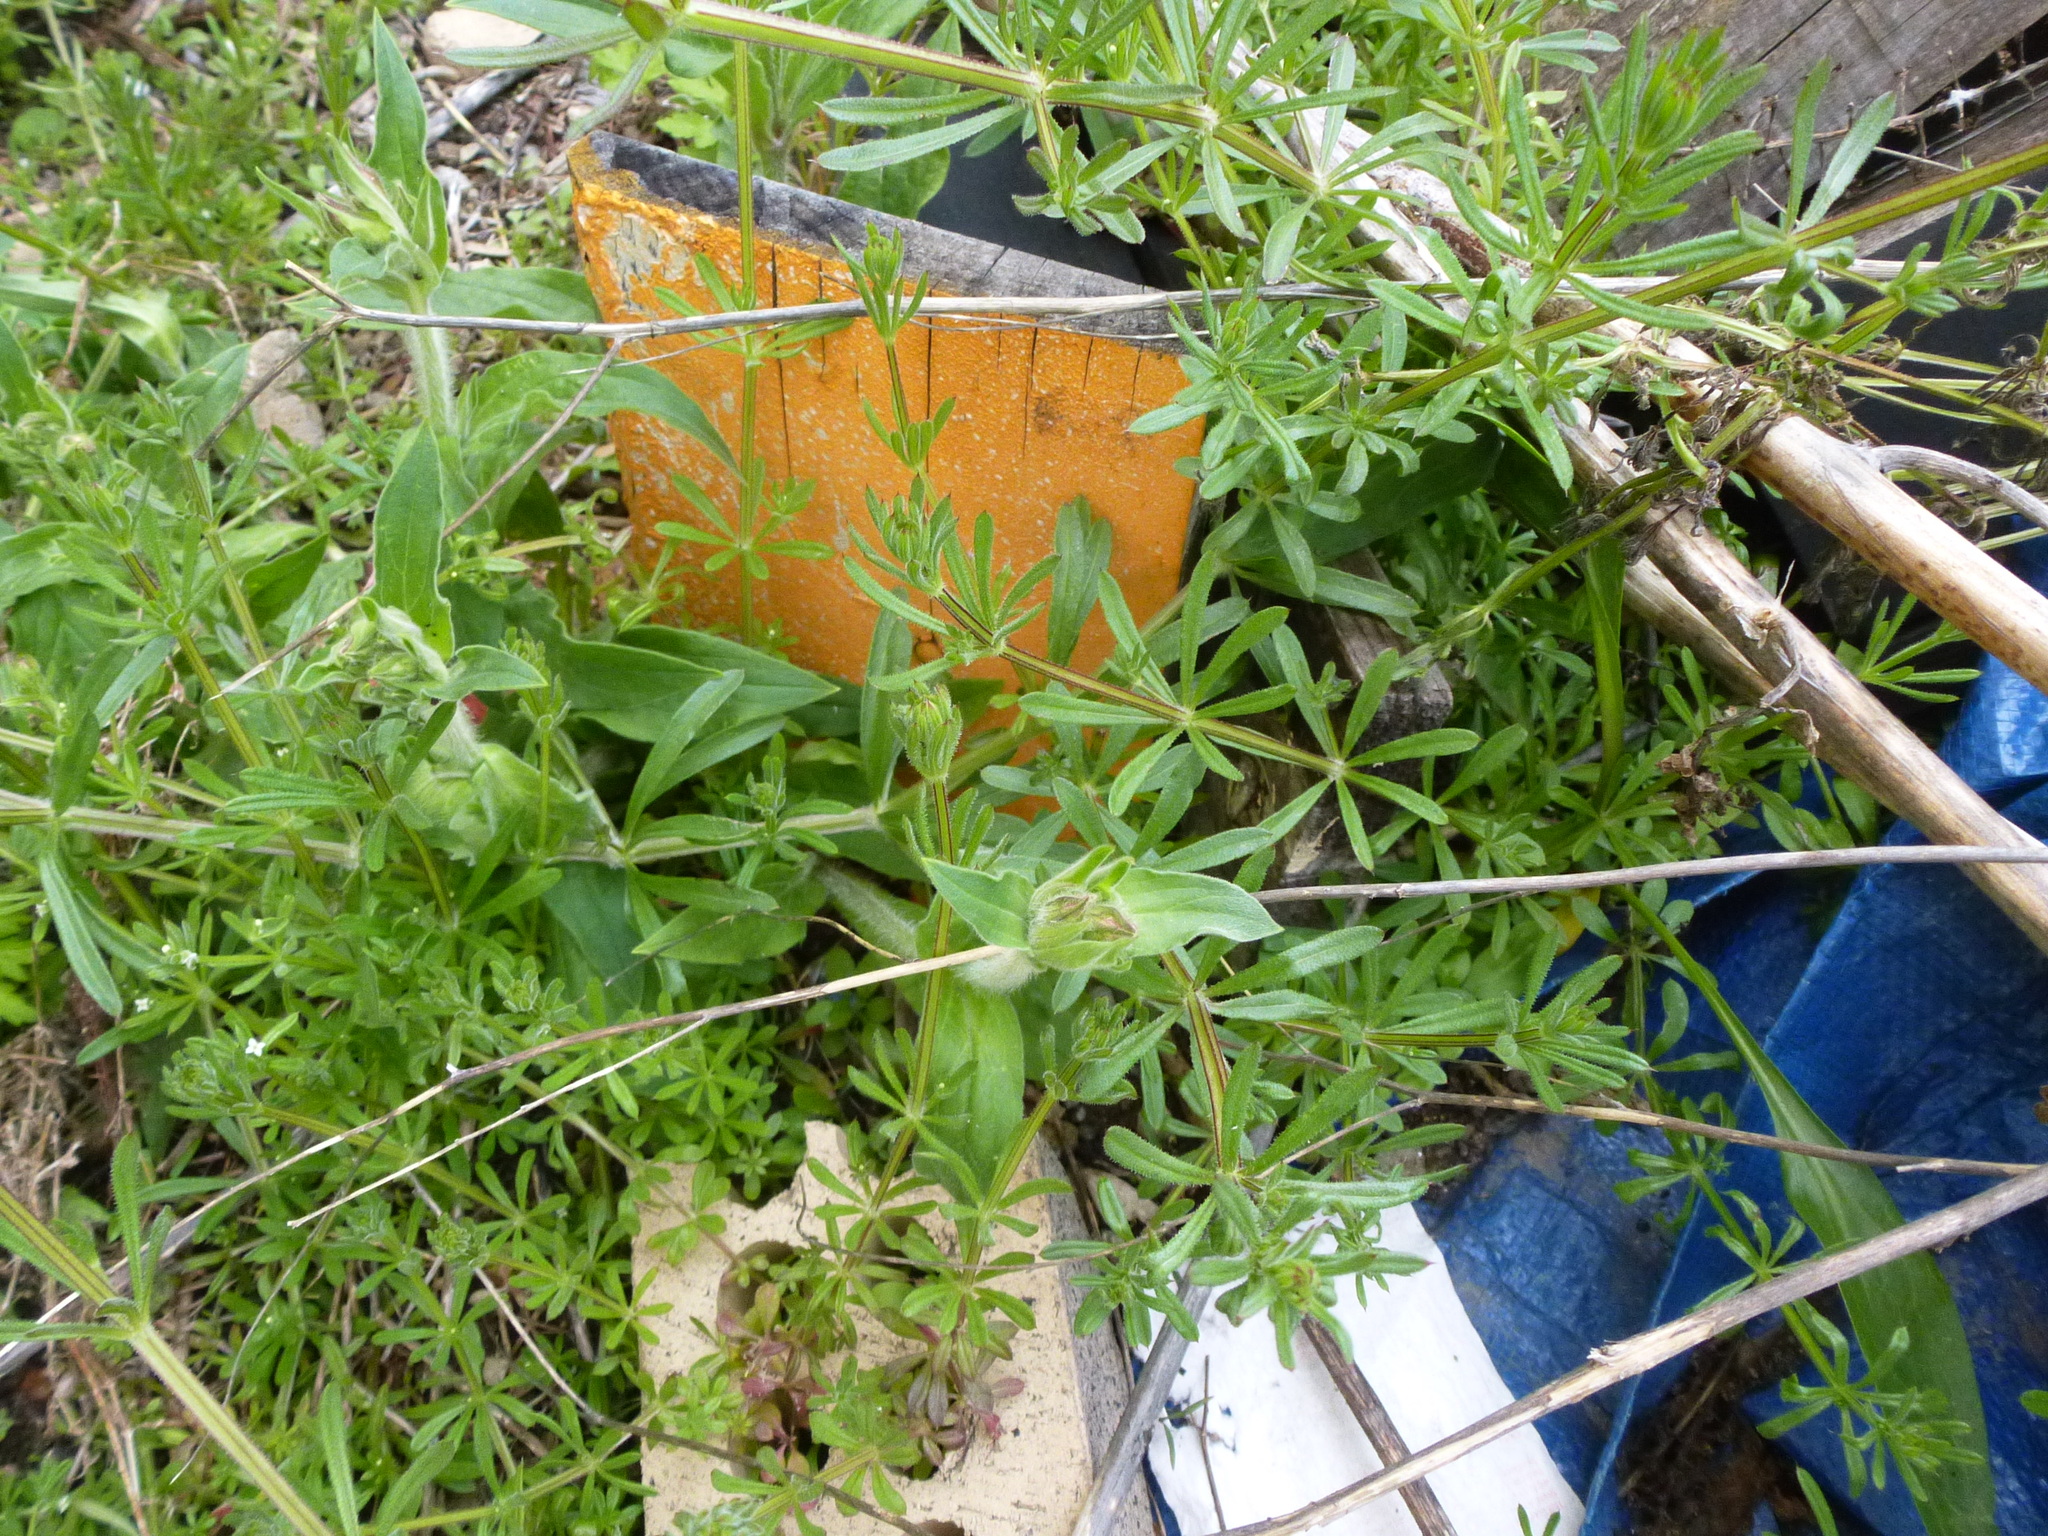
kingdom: Plantae
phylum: Tracheophyta
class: Magnoliopsida
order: Gentianales
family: Rubiaceae
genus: Galium
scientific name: Galium aparine
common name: Cleavers
